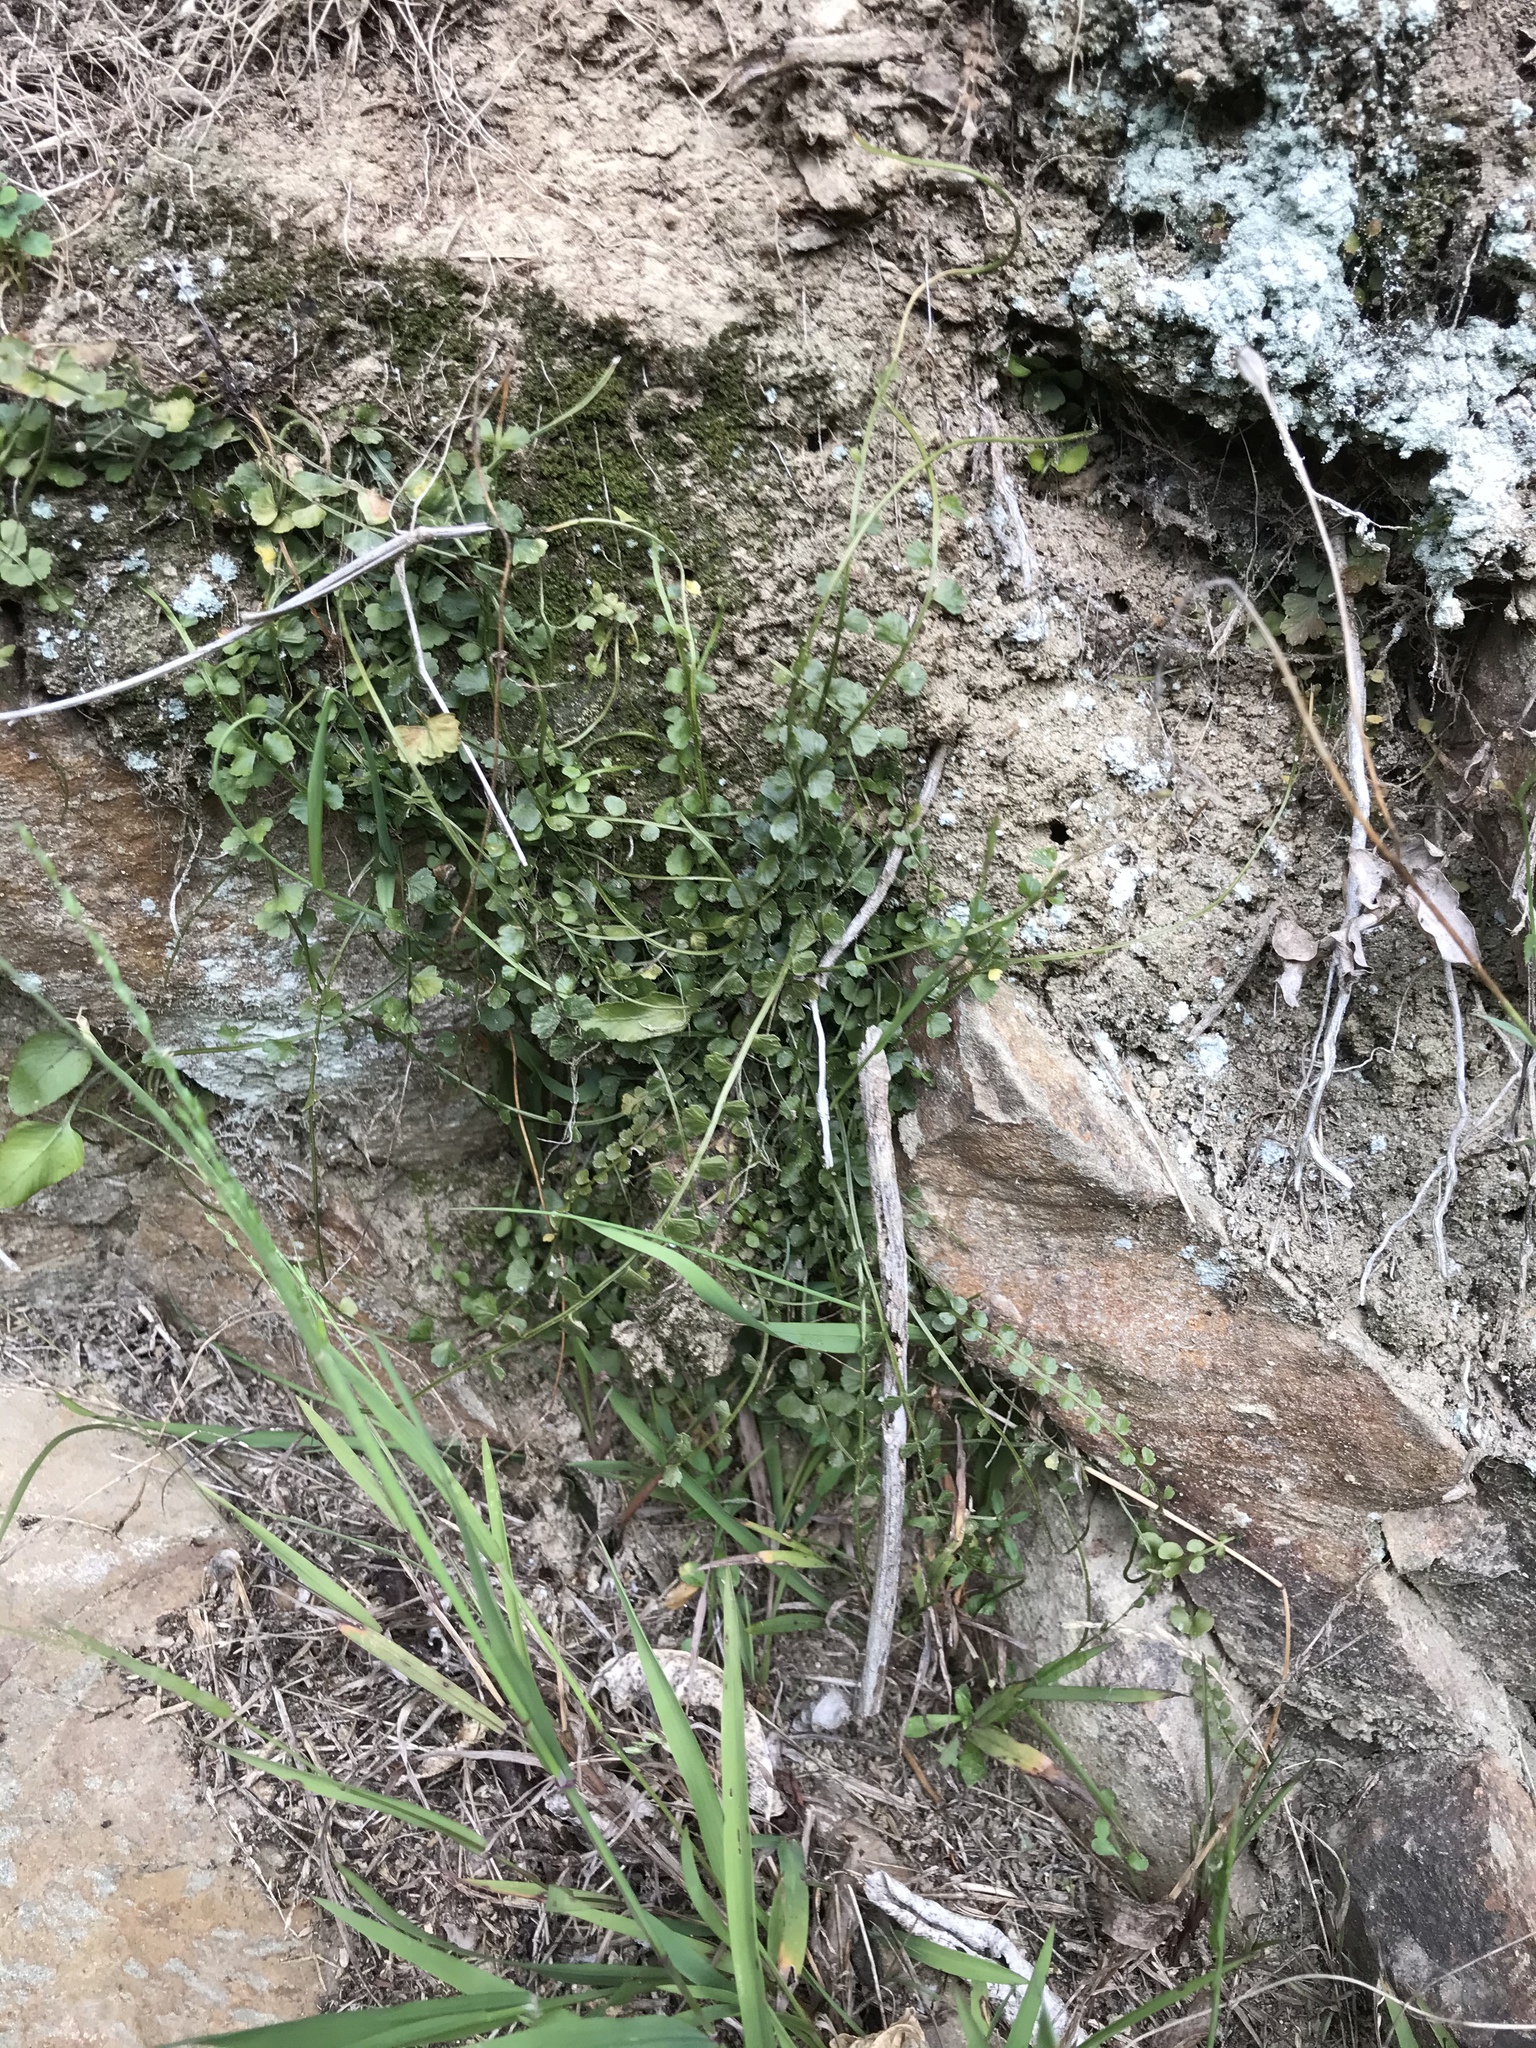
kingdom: Plantae
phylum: Tracheophyta
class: Polypodiopsida
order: Polypodiales
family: Aspleniaceae
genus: Asplenium
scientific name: Asplenium flabellifolium
